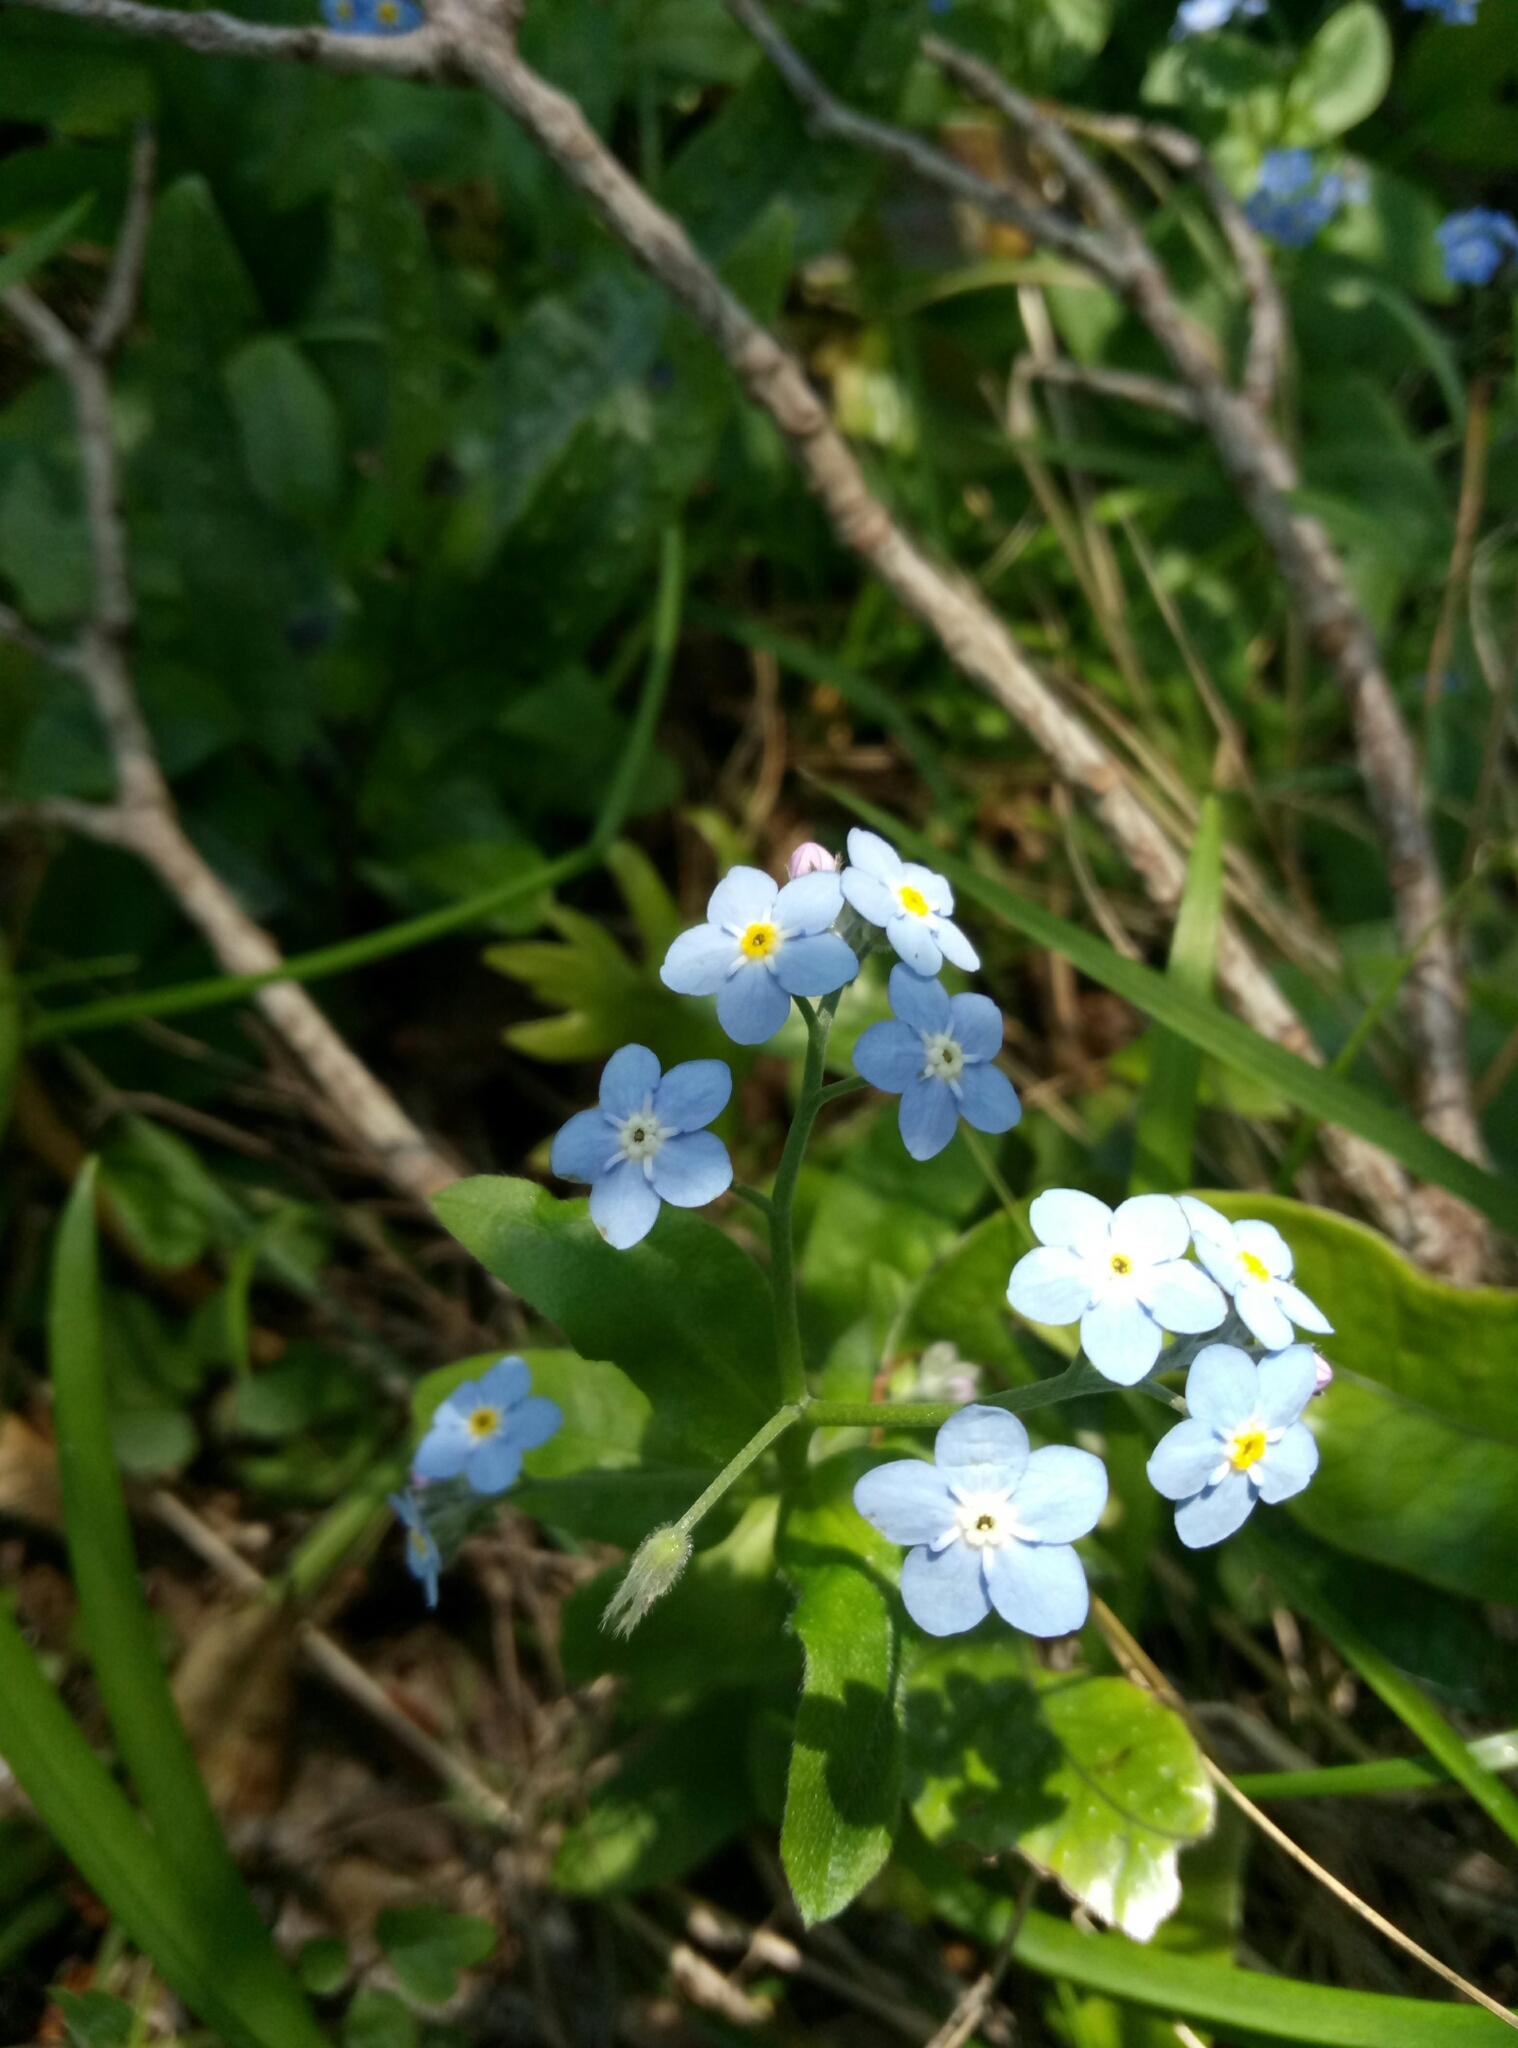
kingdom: Plantae
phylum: Tracheophyta
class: Magnoliopsida
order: Boraginales
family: Boraginaceae
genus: Myosotis
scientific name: Myosotis sylvatica
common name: Wood forget-me-not
